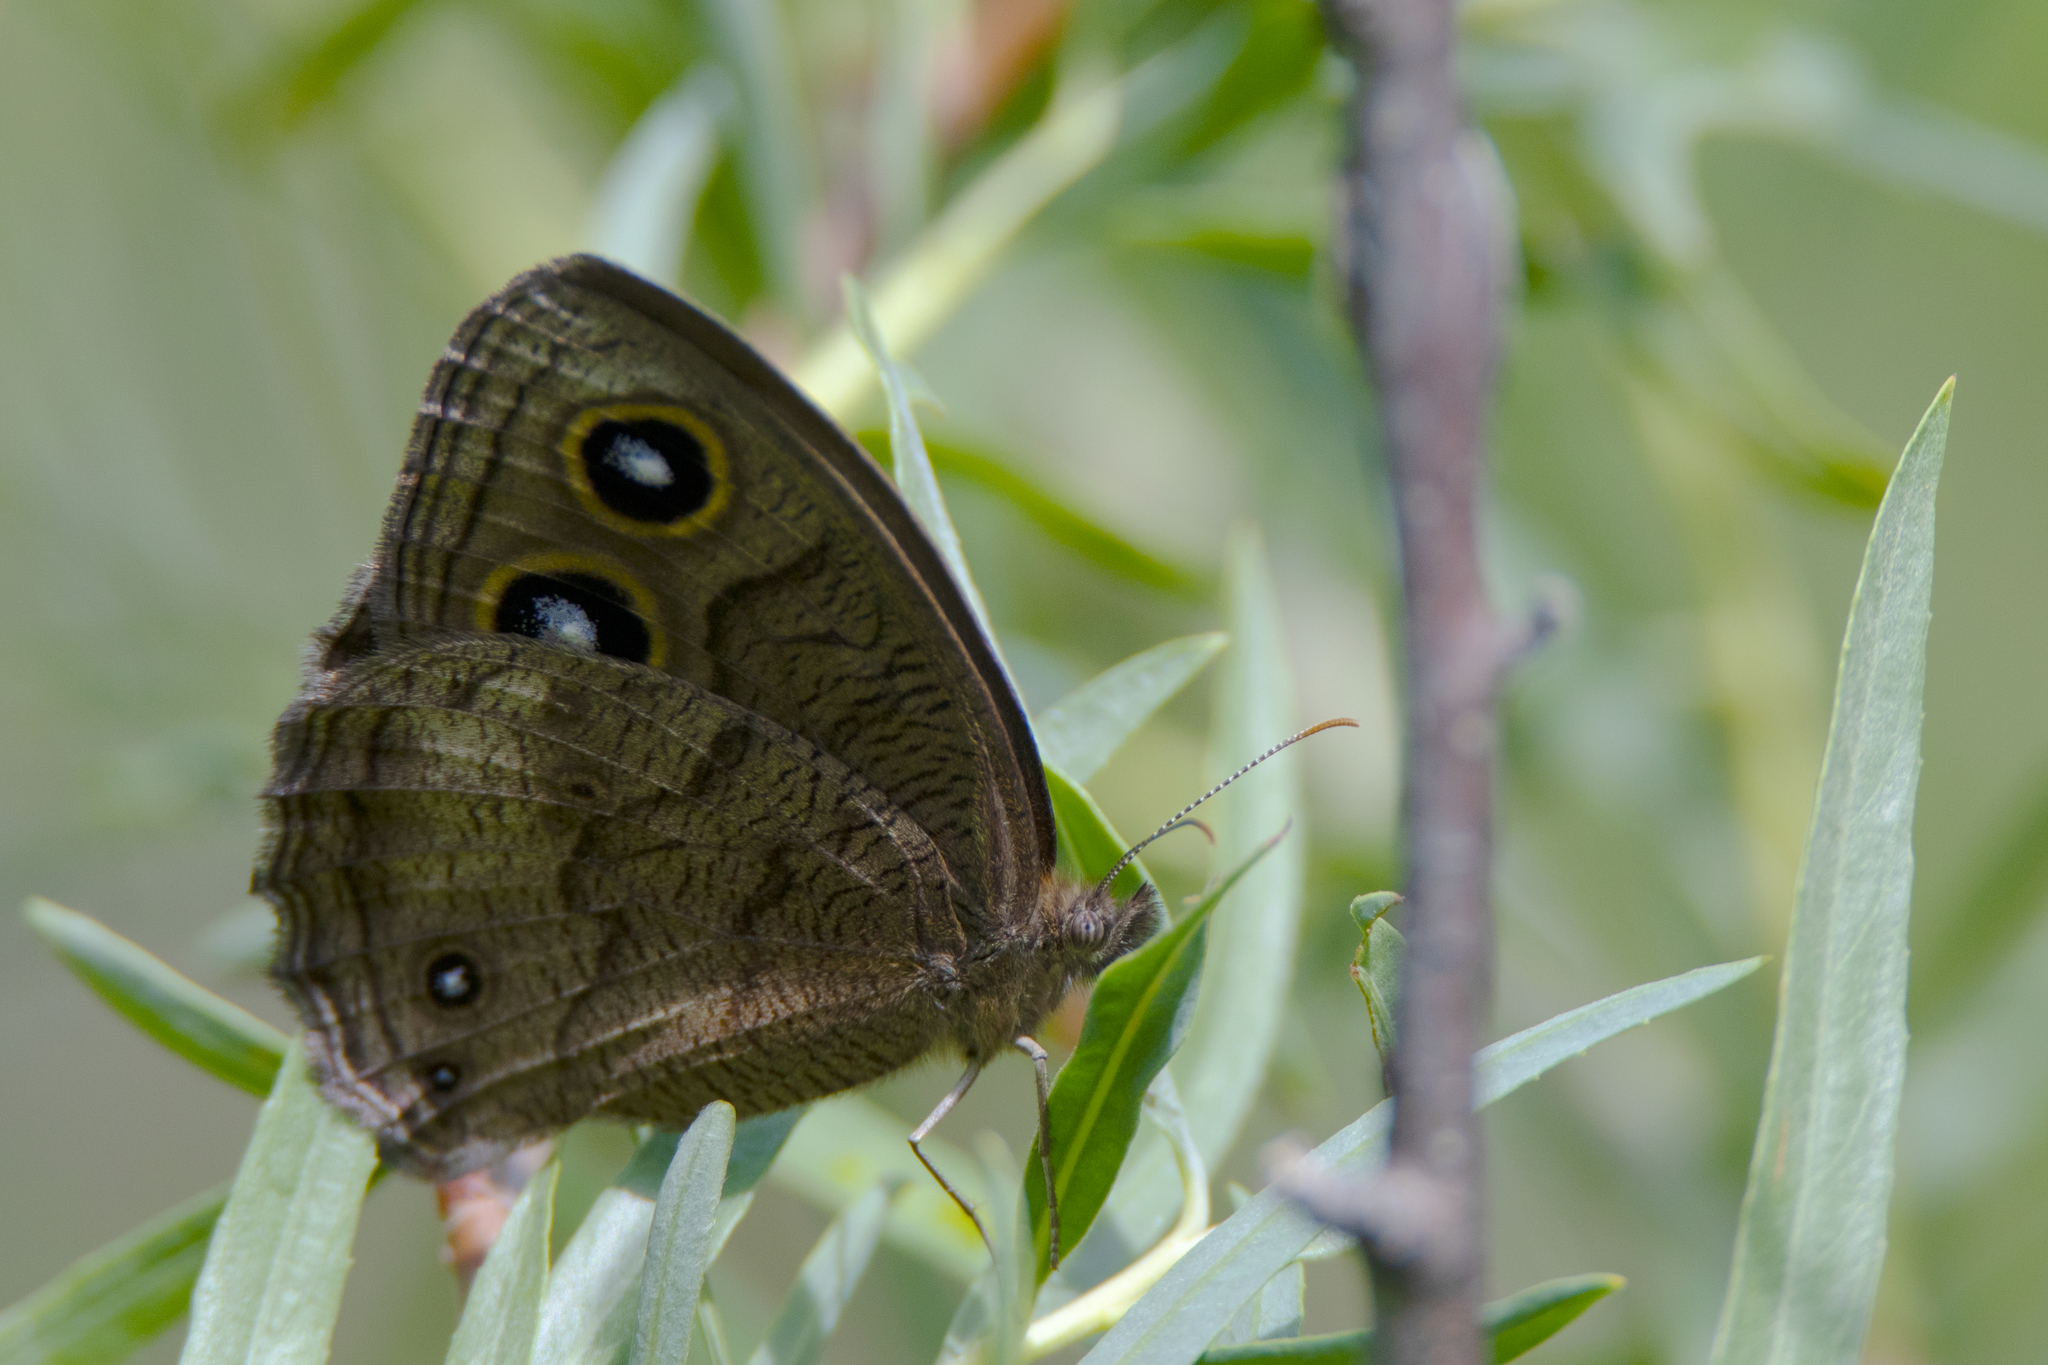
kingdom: Animalia
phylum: Arthropoda
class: Insecta
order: Lepidoptera
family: Nymphalidae
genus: Cercyonis
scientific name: Cercyonis pegala
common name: Common wood-nymph
